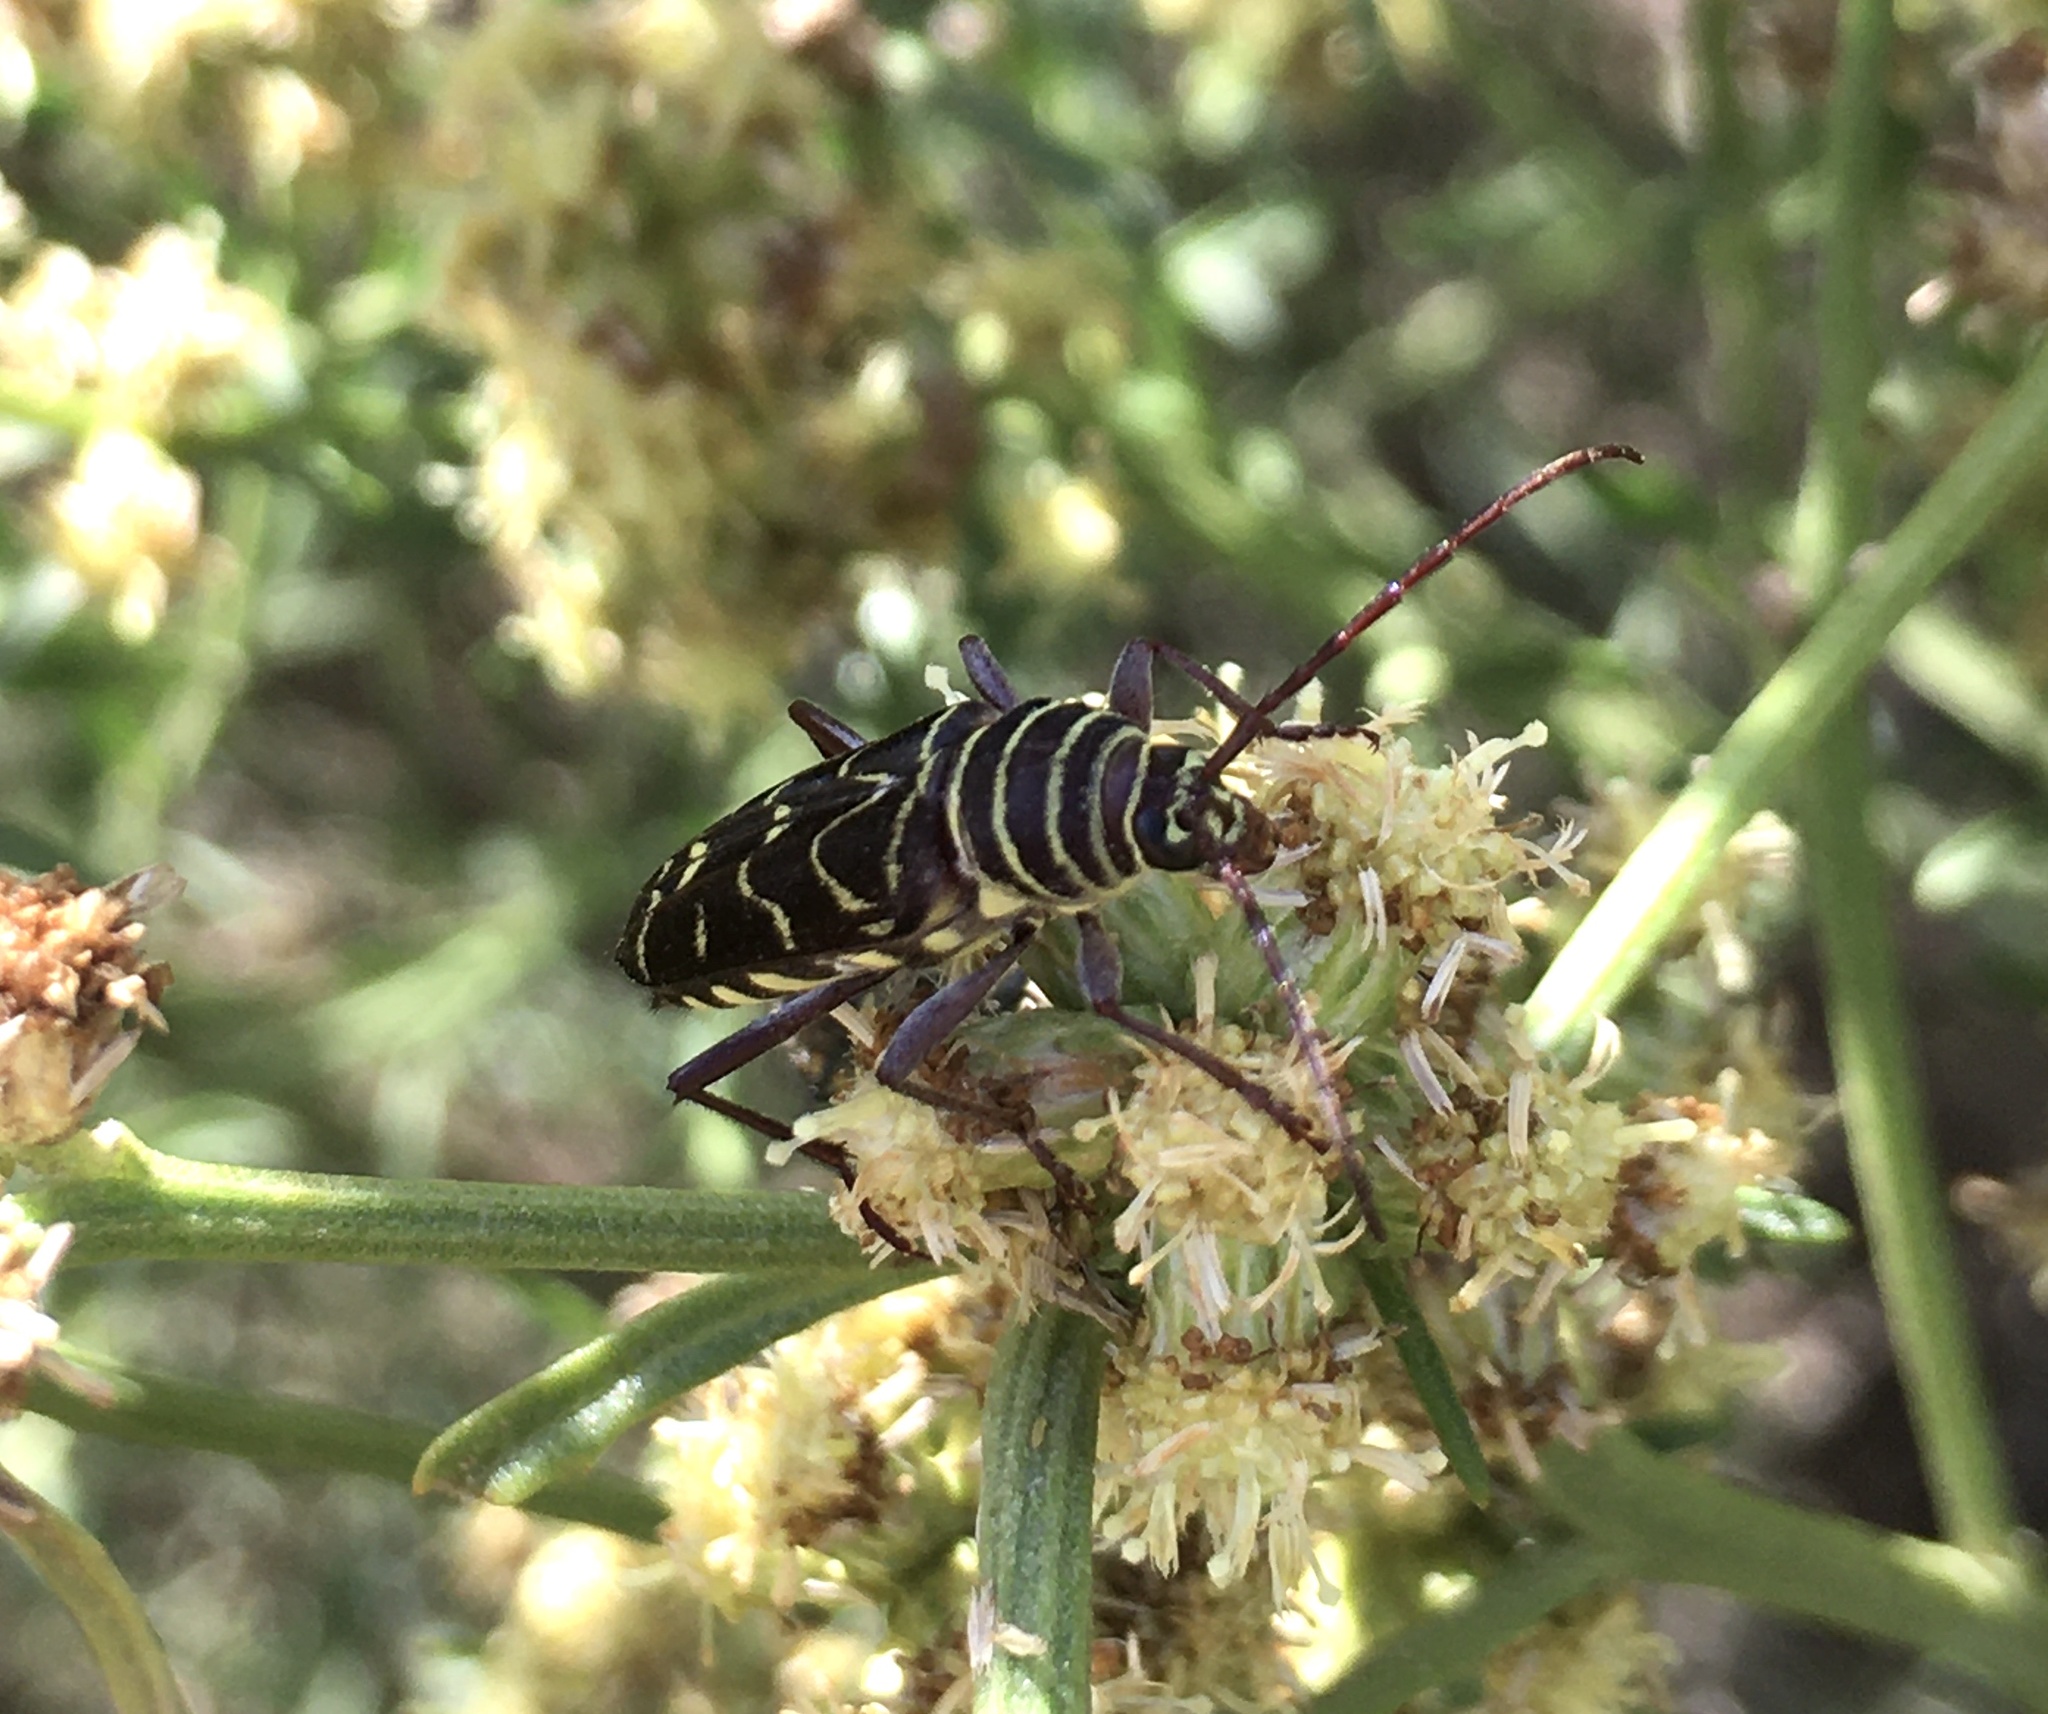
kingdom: Animalia
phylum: Arthropoda
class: Insecta
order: Coleoptera
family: Cerambycidae
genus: Megacyllene
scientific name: Megacyllene acuta
